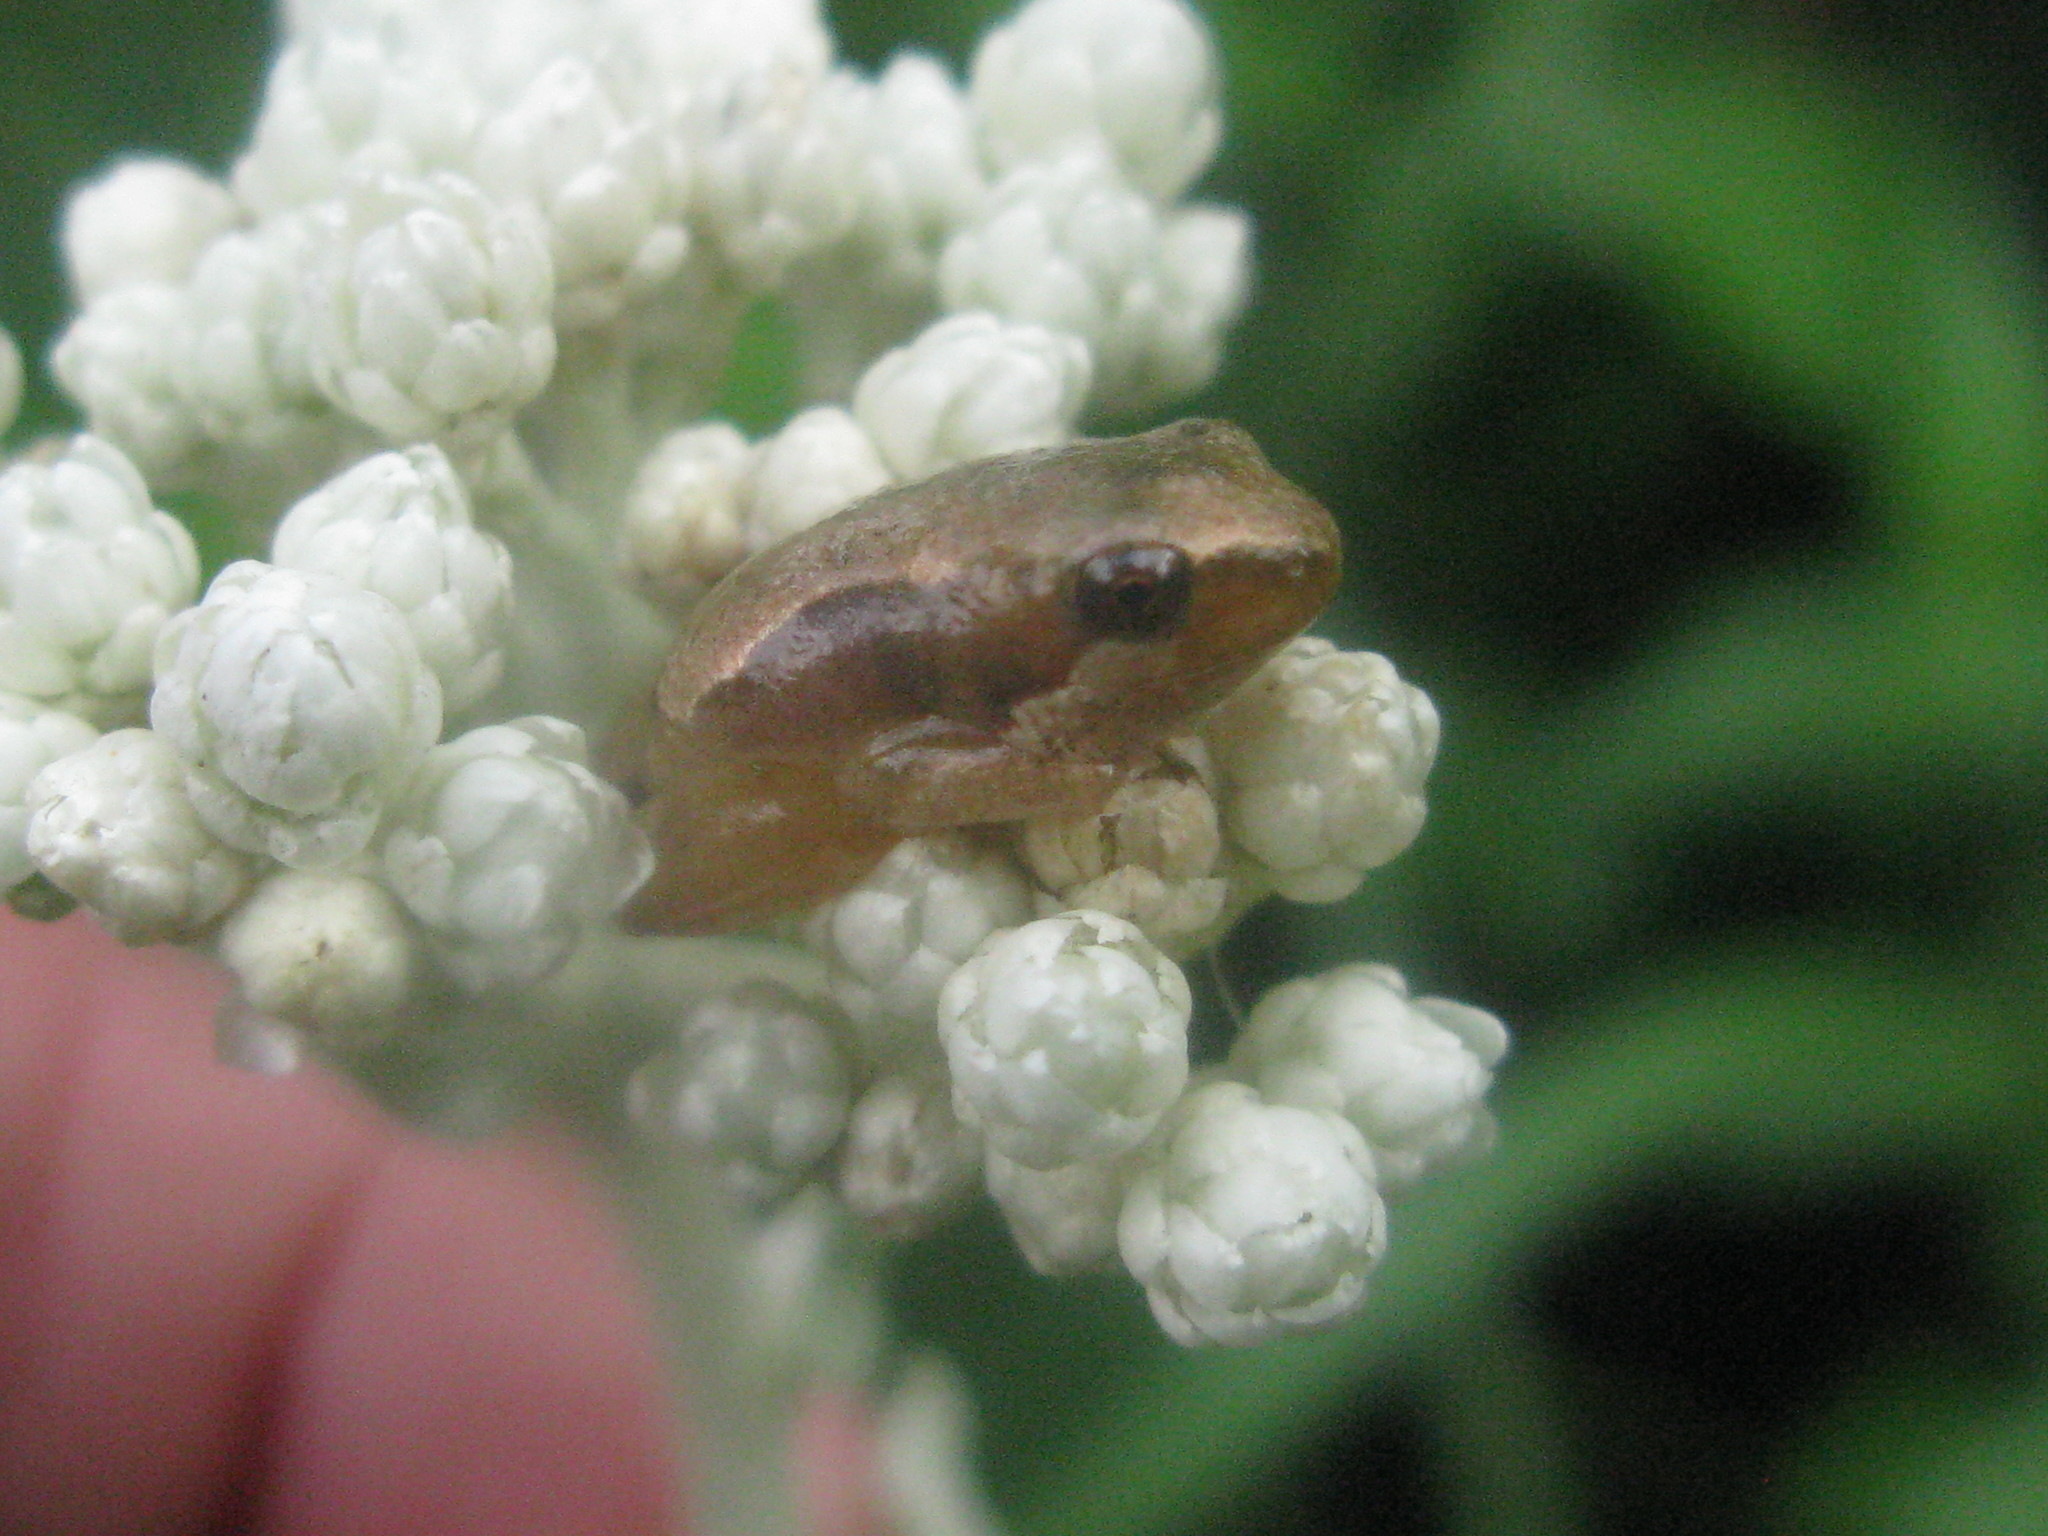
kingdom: Animalia
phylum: Chordata
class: Amphibia
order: Anura
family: Hyperoliidae
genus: Hyperolius
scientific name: Hyperolius marmoratus
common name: Painted reed frog
